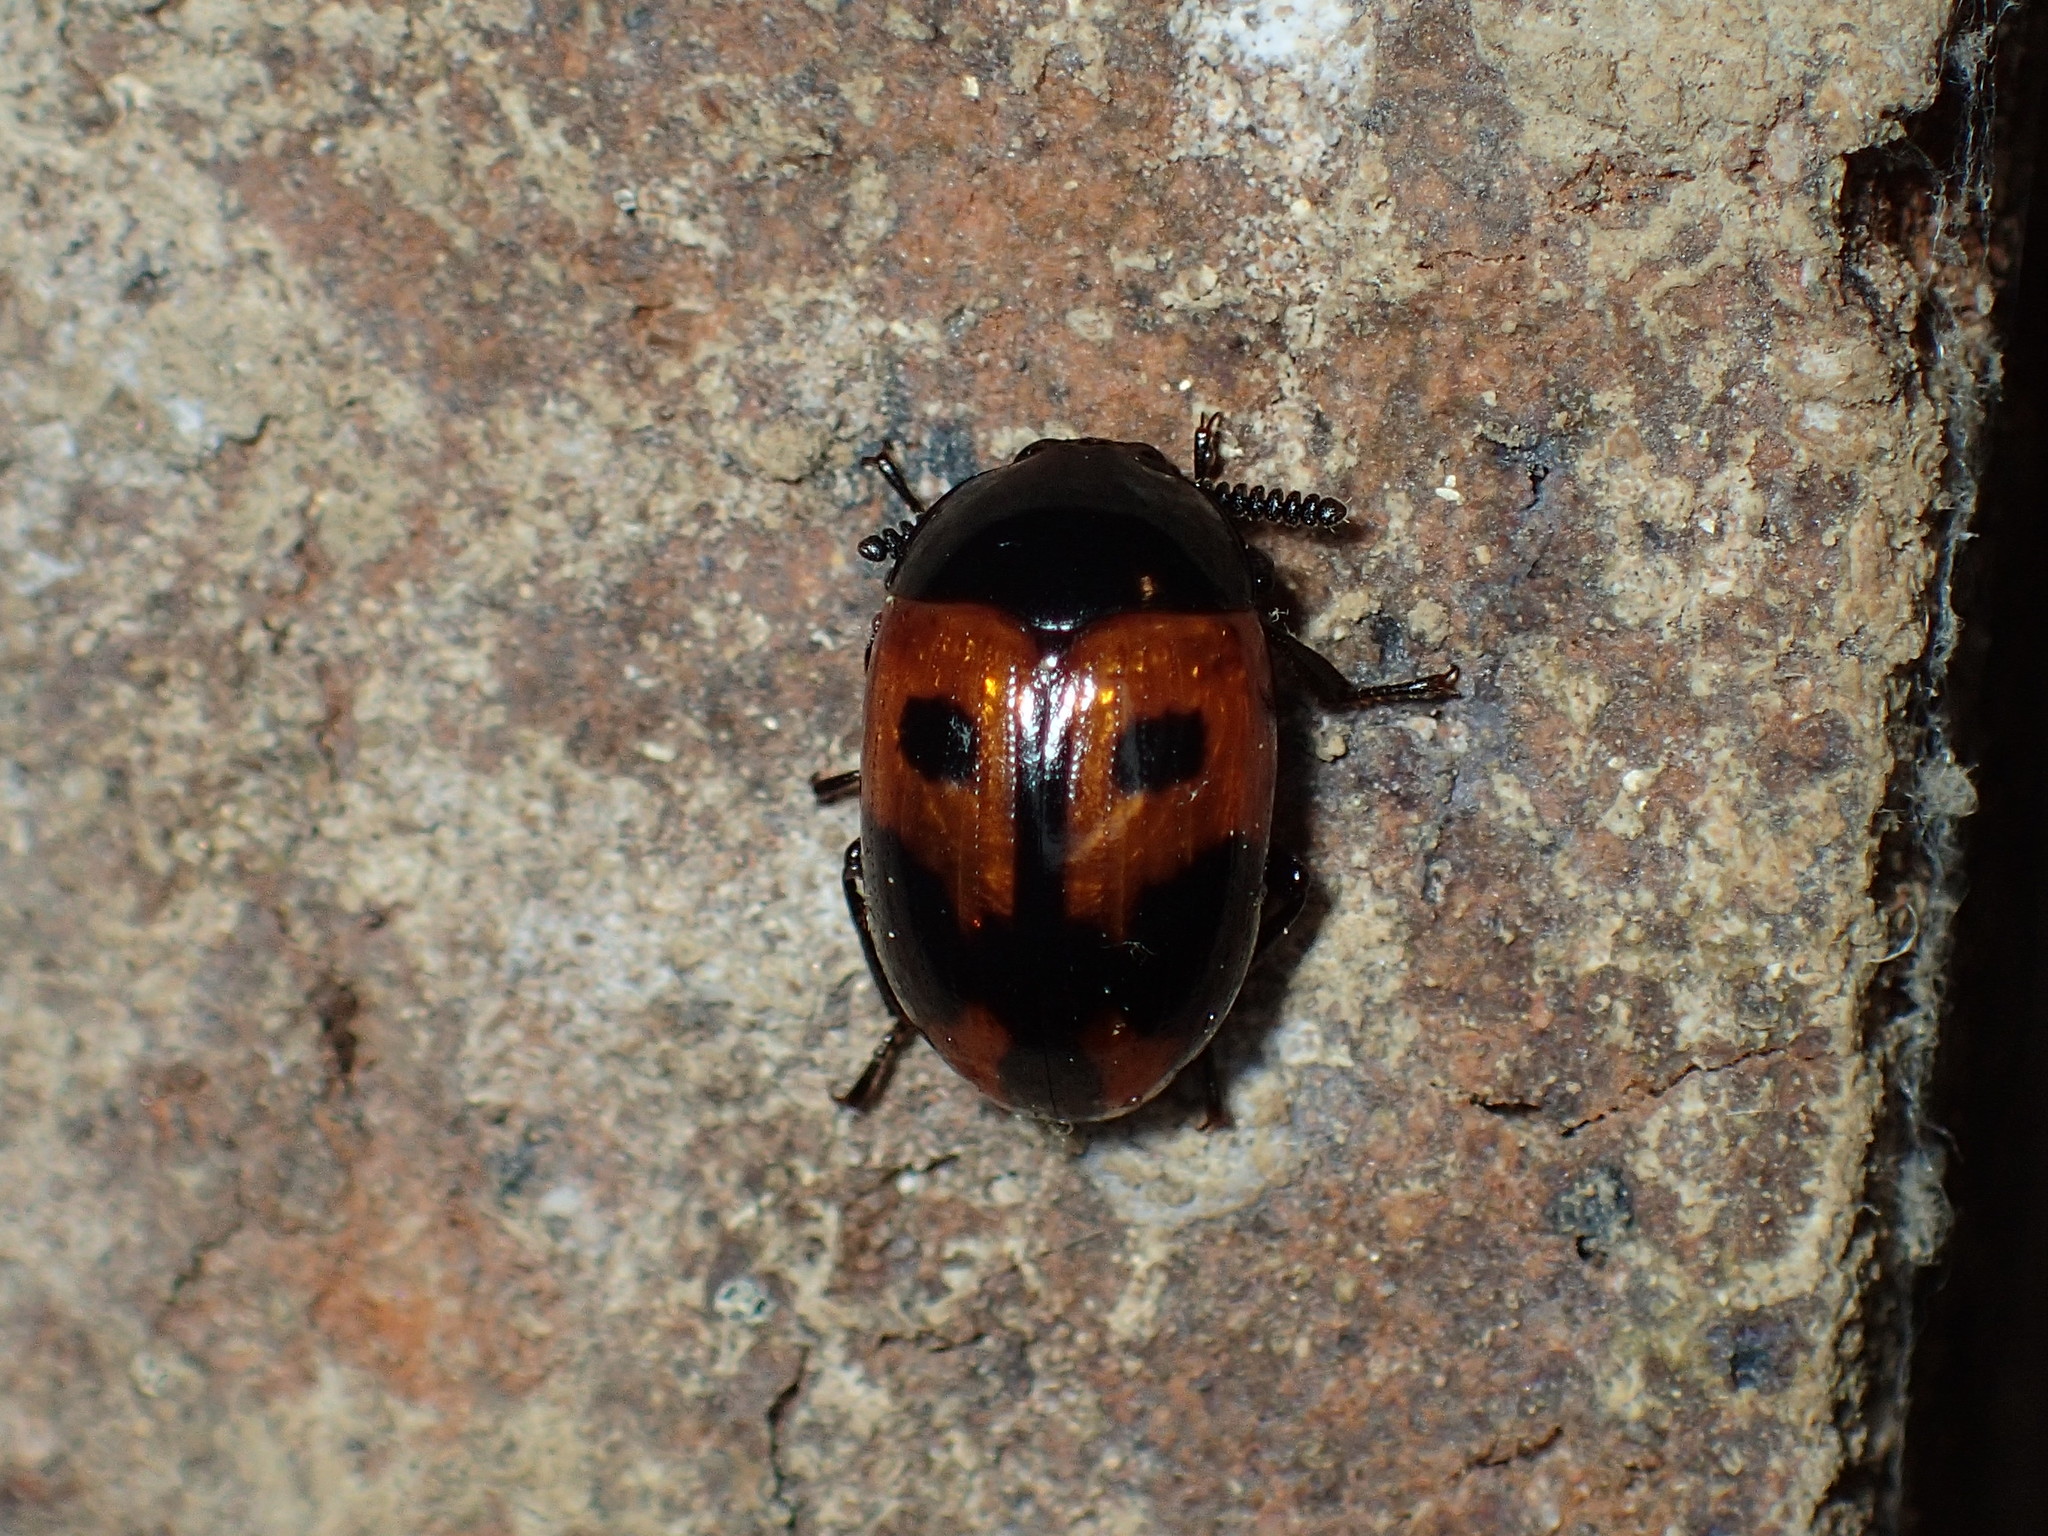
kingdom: Animalia
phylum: Arthropoda
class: Insecta
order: Coleoptera
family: Tenebrionidae
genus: Diaperis
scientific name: Diaperis maculata
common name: Darkling beetle
